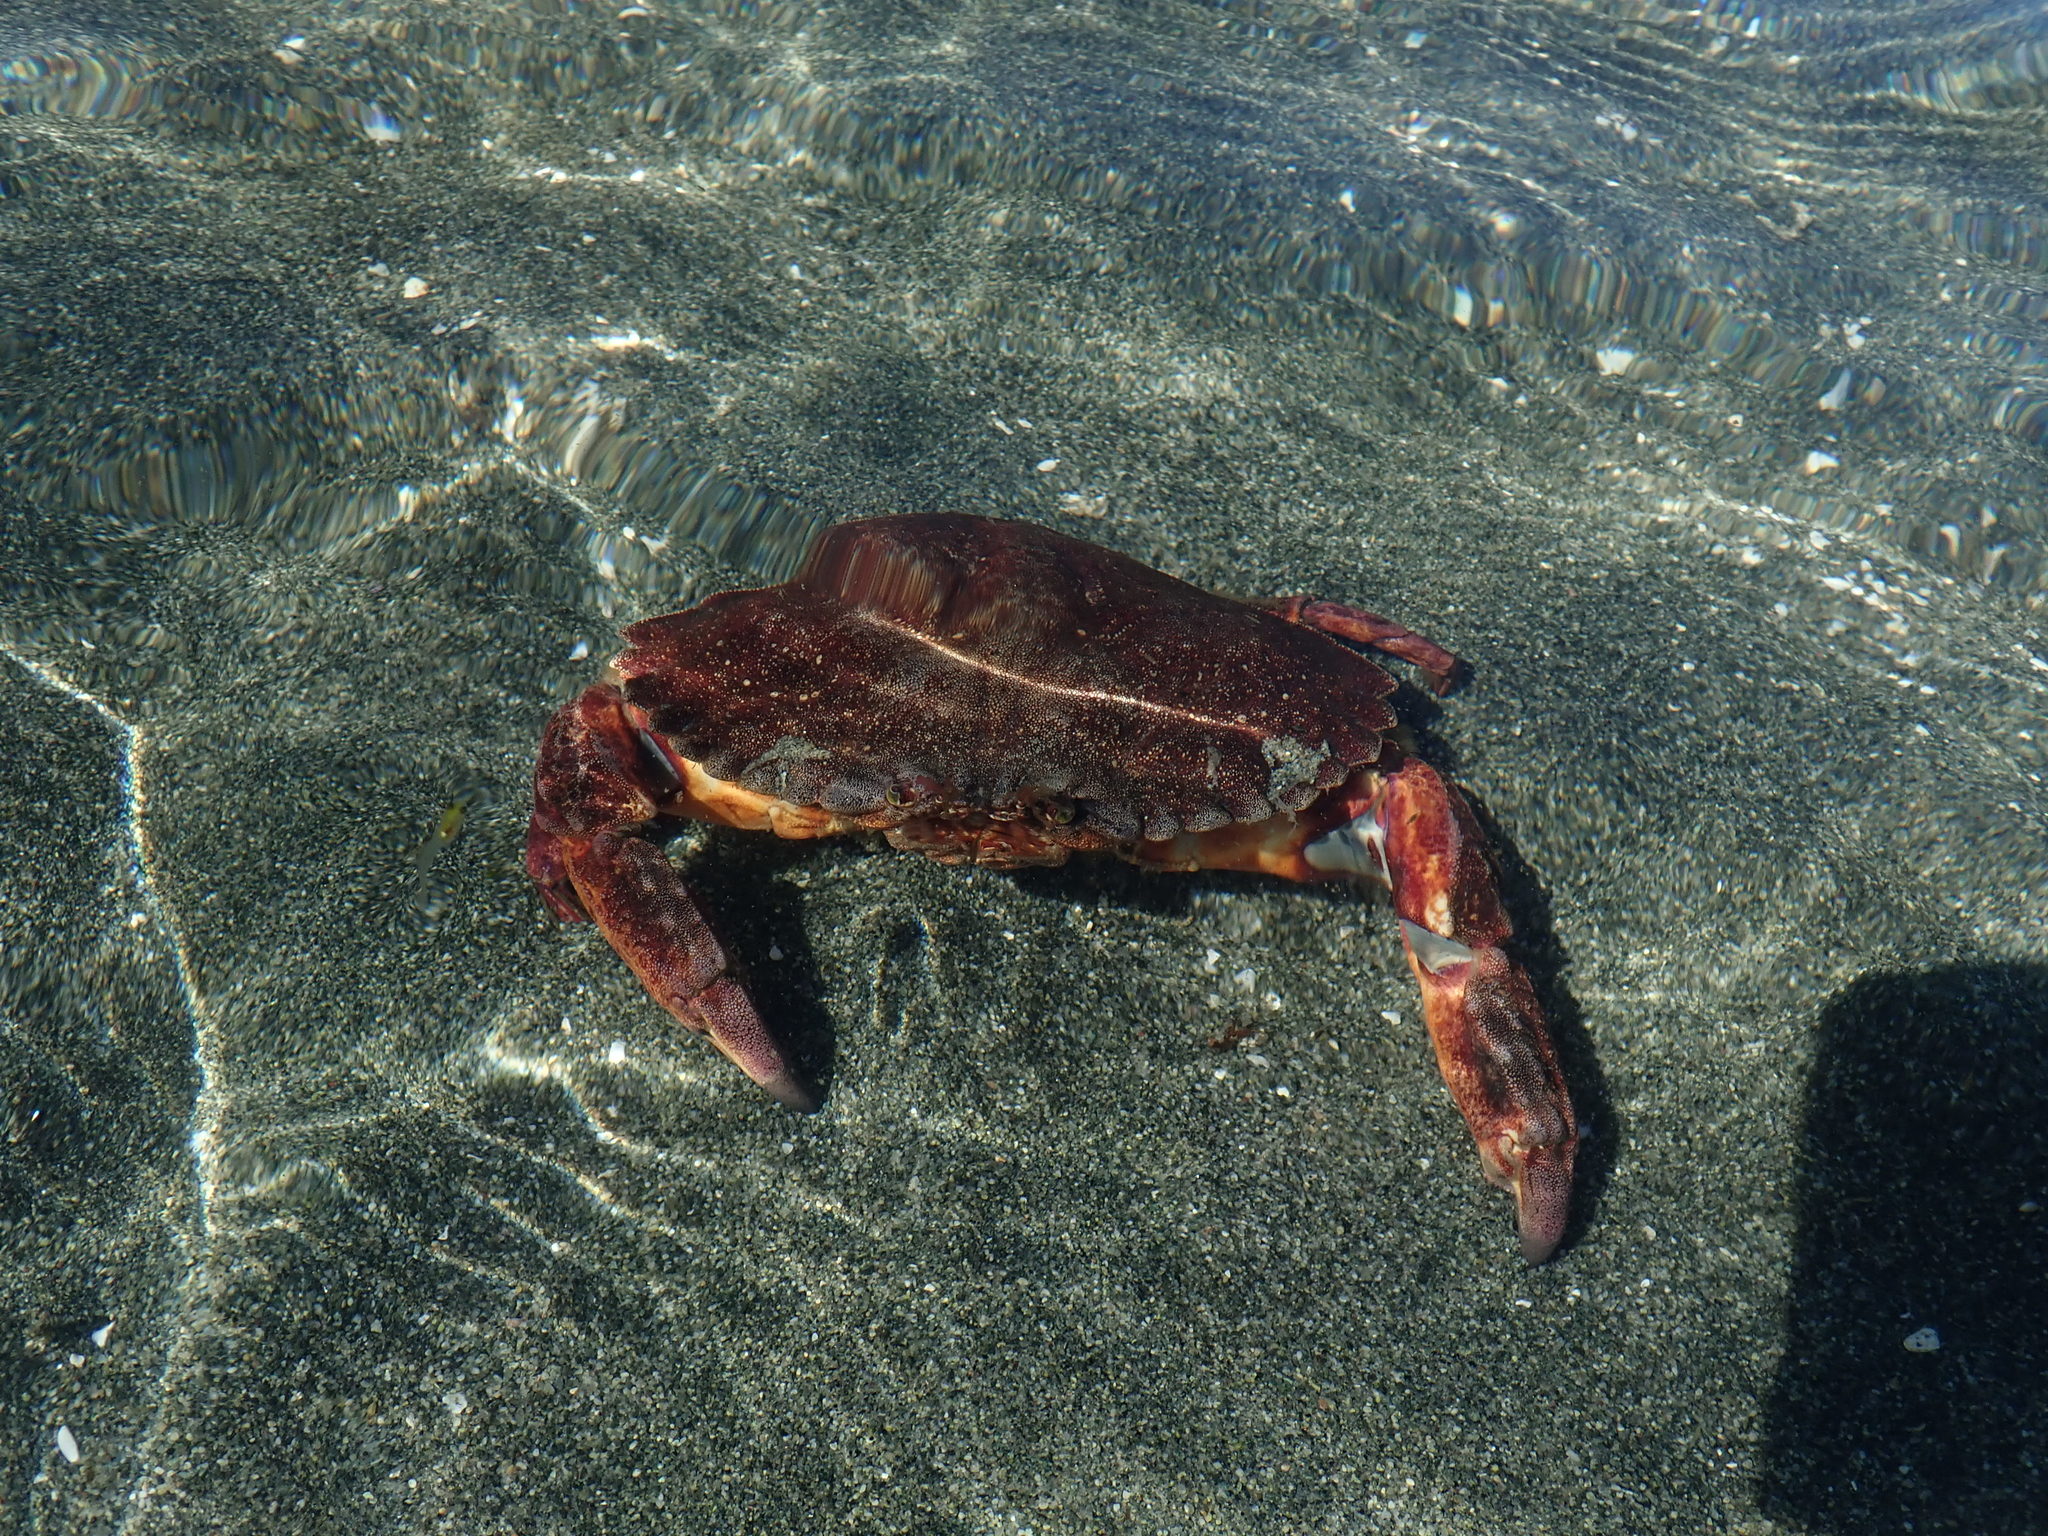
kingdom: Animalia
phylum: Arthropoda
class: Malacostraca
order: Decapoda
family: Cancridae
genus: Cancer
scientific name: Cancer productus
